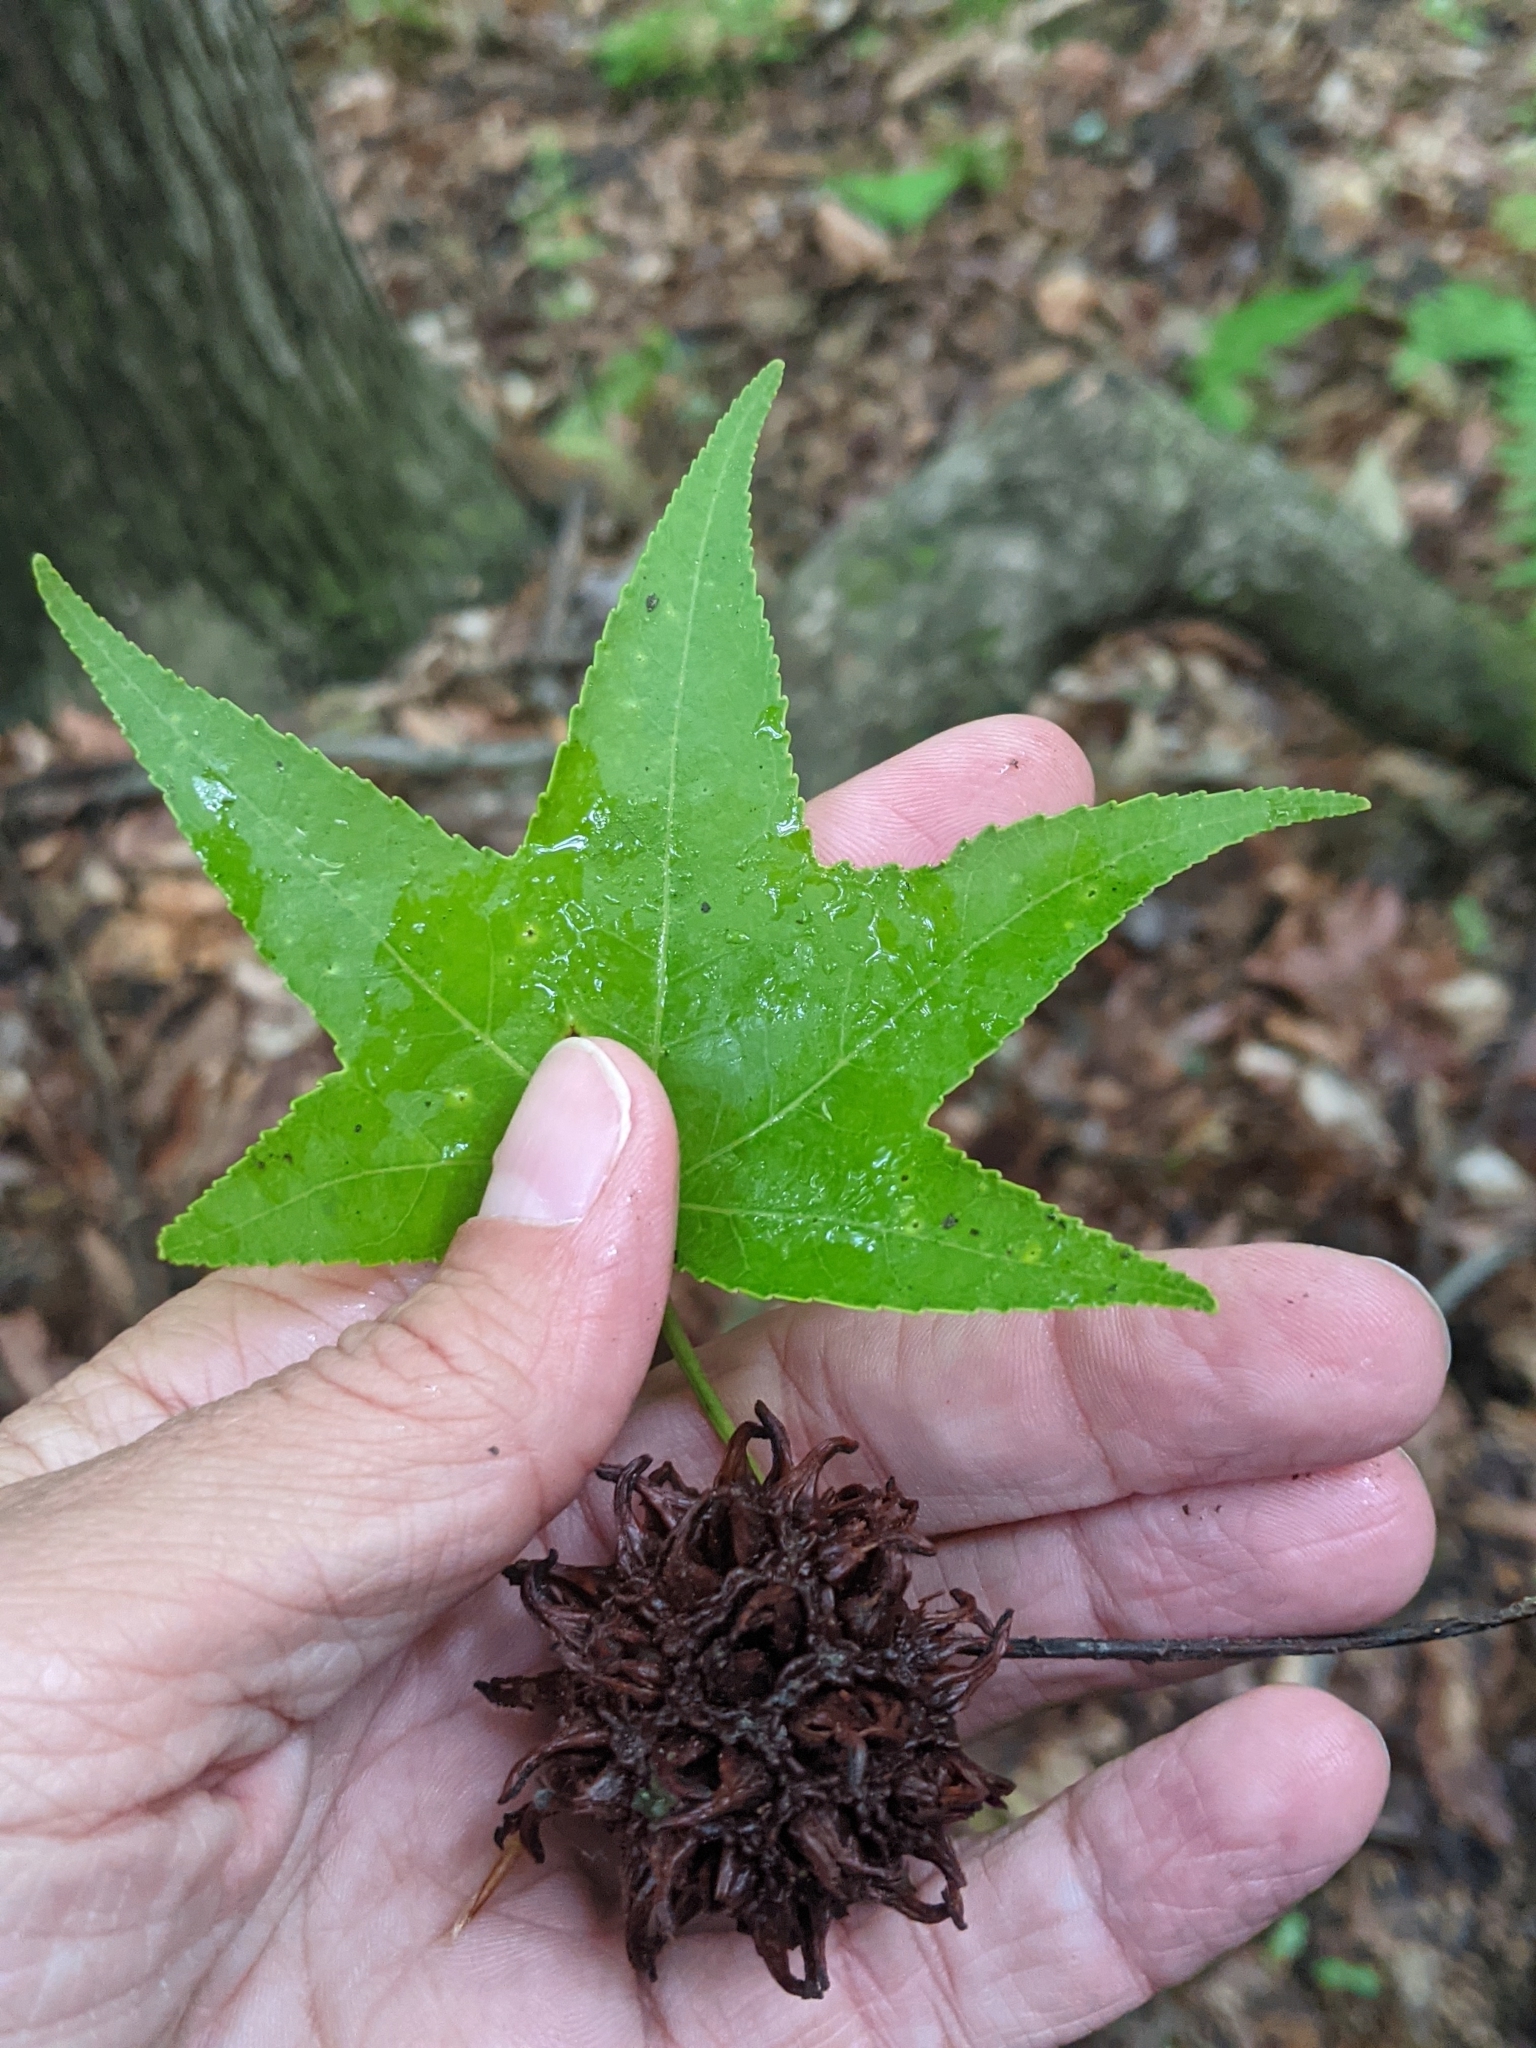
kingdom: Plantae
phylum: Tracheophyta
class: Magnoliopsida
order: Saxifragales
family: Altingiaceae
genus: Liquidambar
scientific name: Liquidambar styraciflua
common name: Sweet gum
